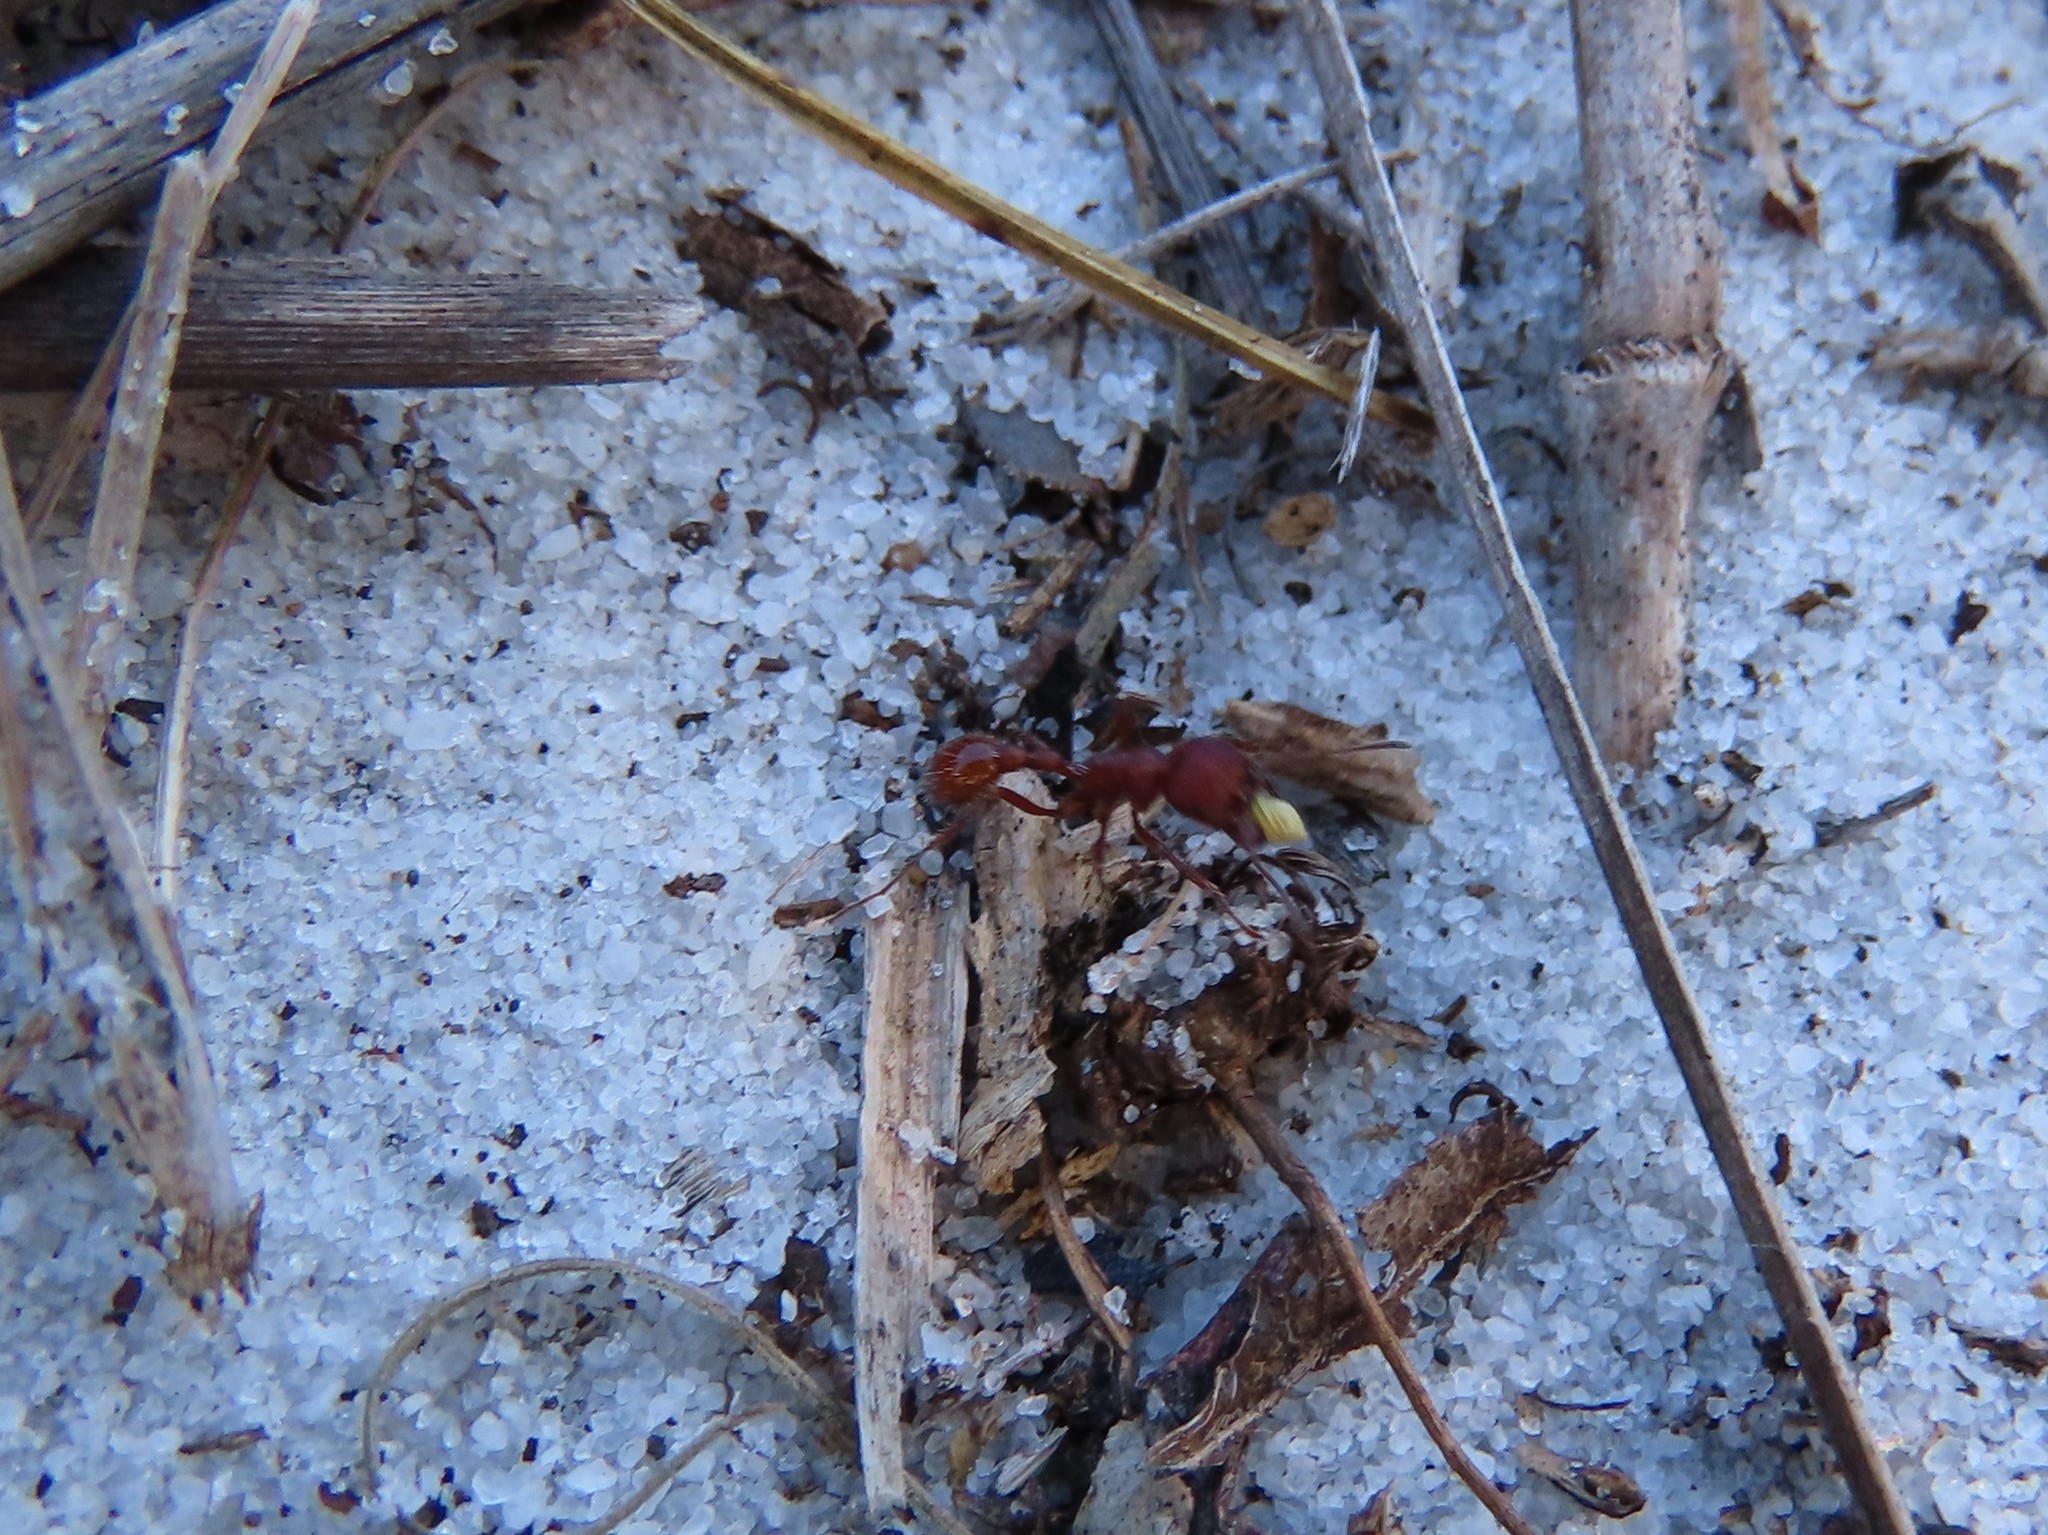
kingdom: Animalia
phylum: Arthropoda
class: Insecta
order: Hymenoptera
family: Formicidae
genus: Pogonomyrmex
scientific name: Pogonomyrmex badius
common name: Florida harvester ant
